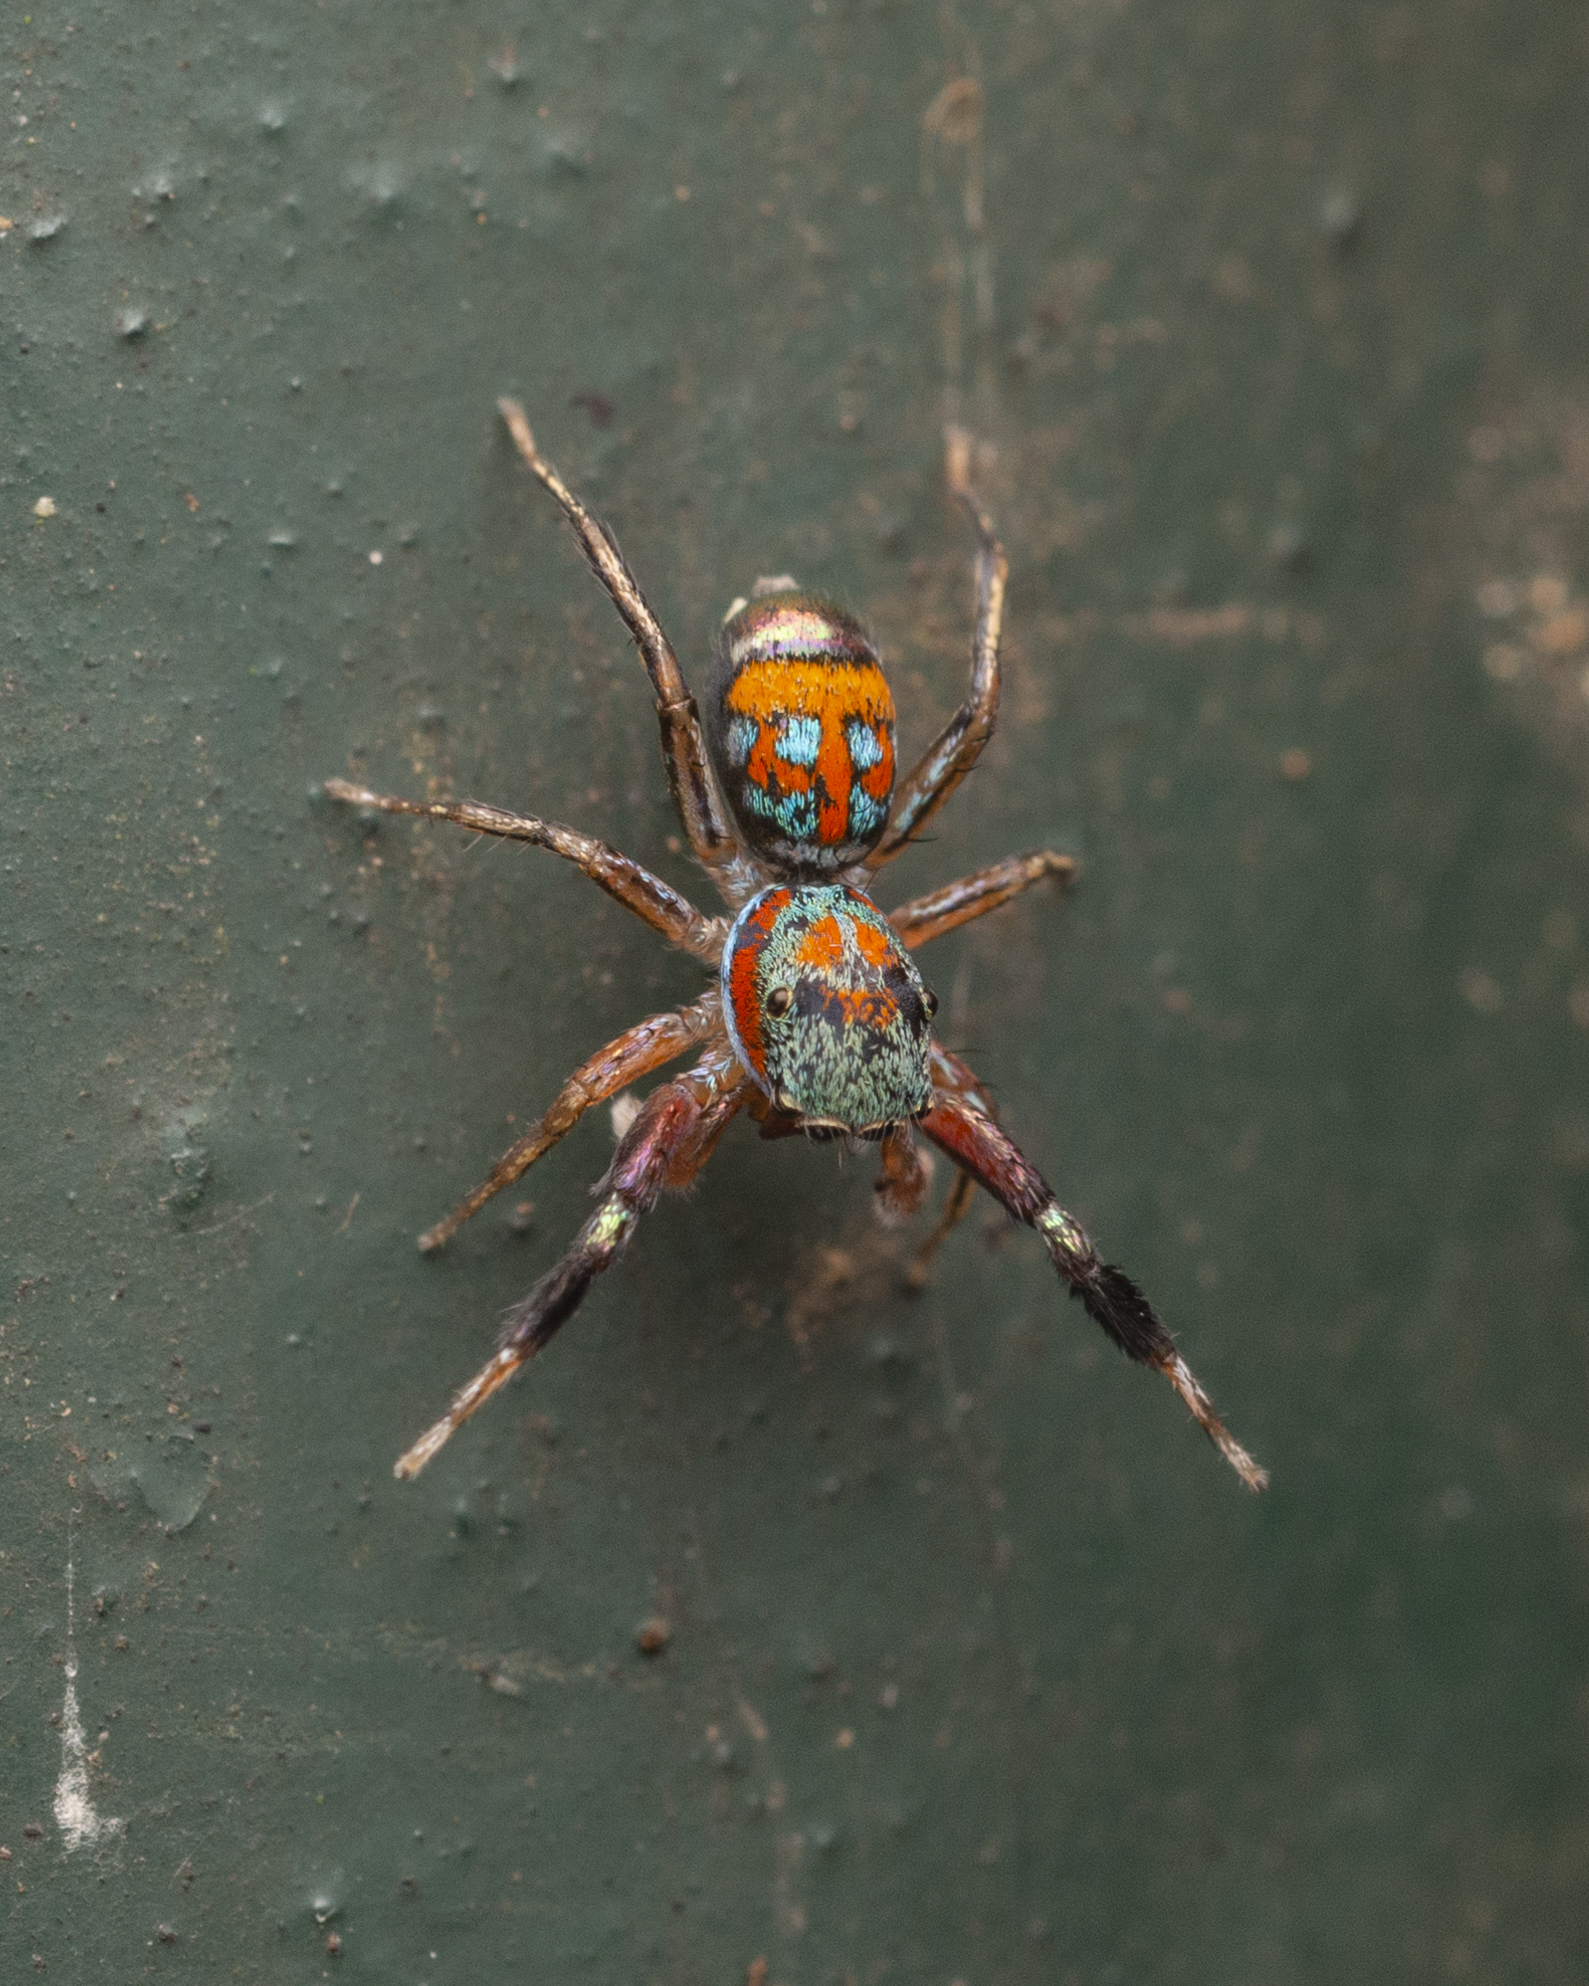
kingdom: Animalia
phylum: Arthropoda
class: Arachnida
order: Araneae
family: Salticidae
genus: Siler
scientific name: Siler collingwoodi
